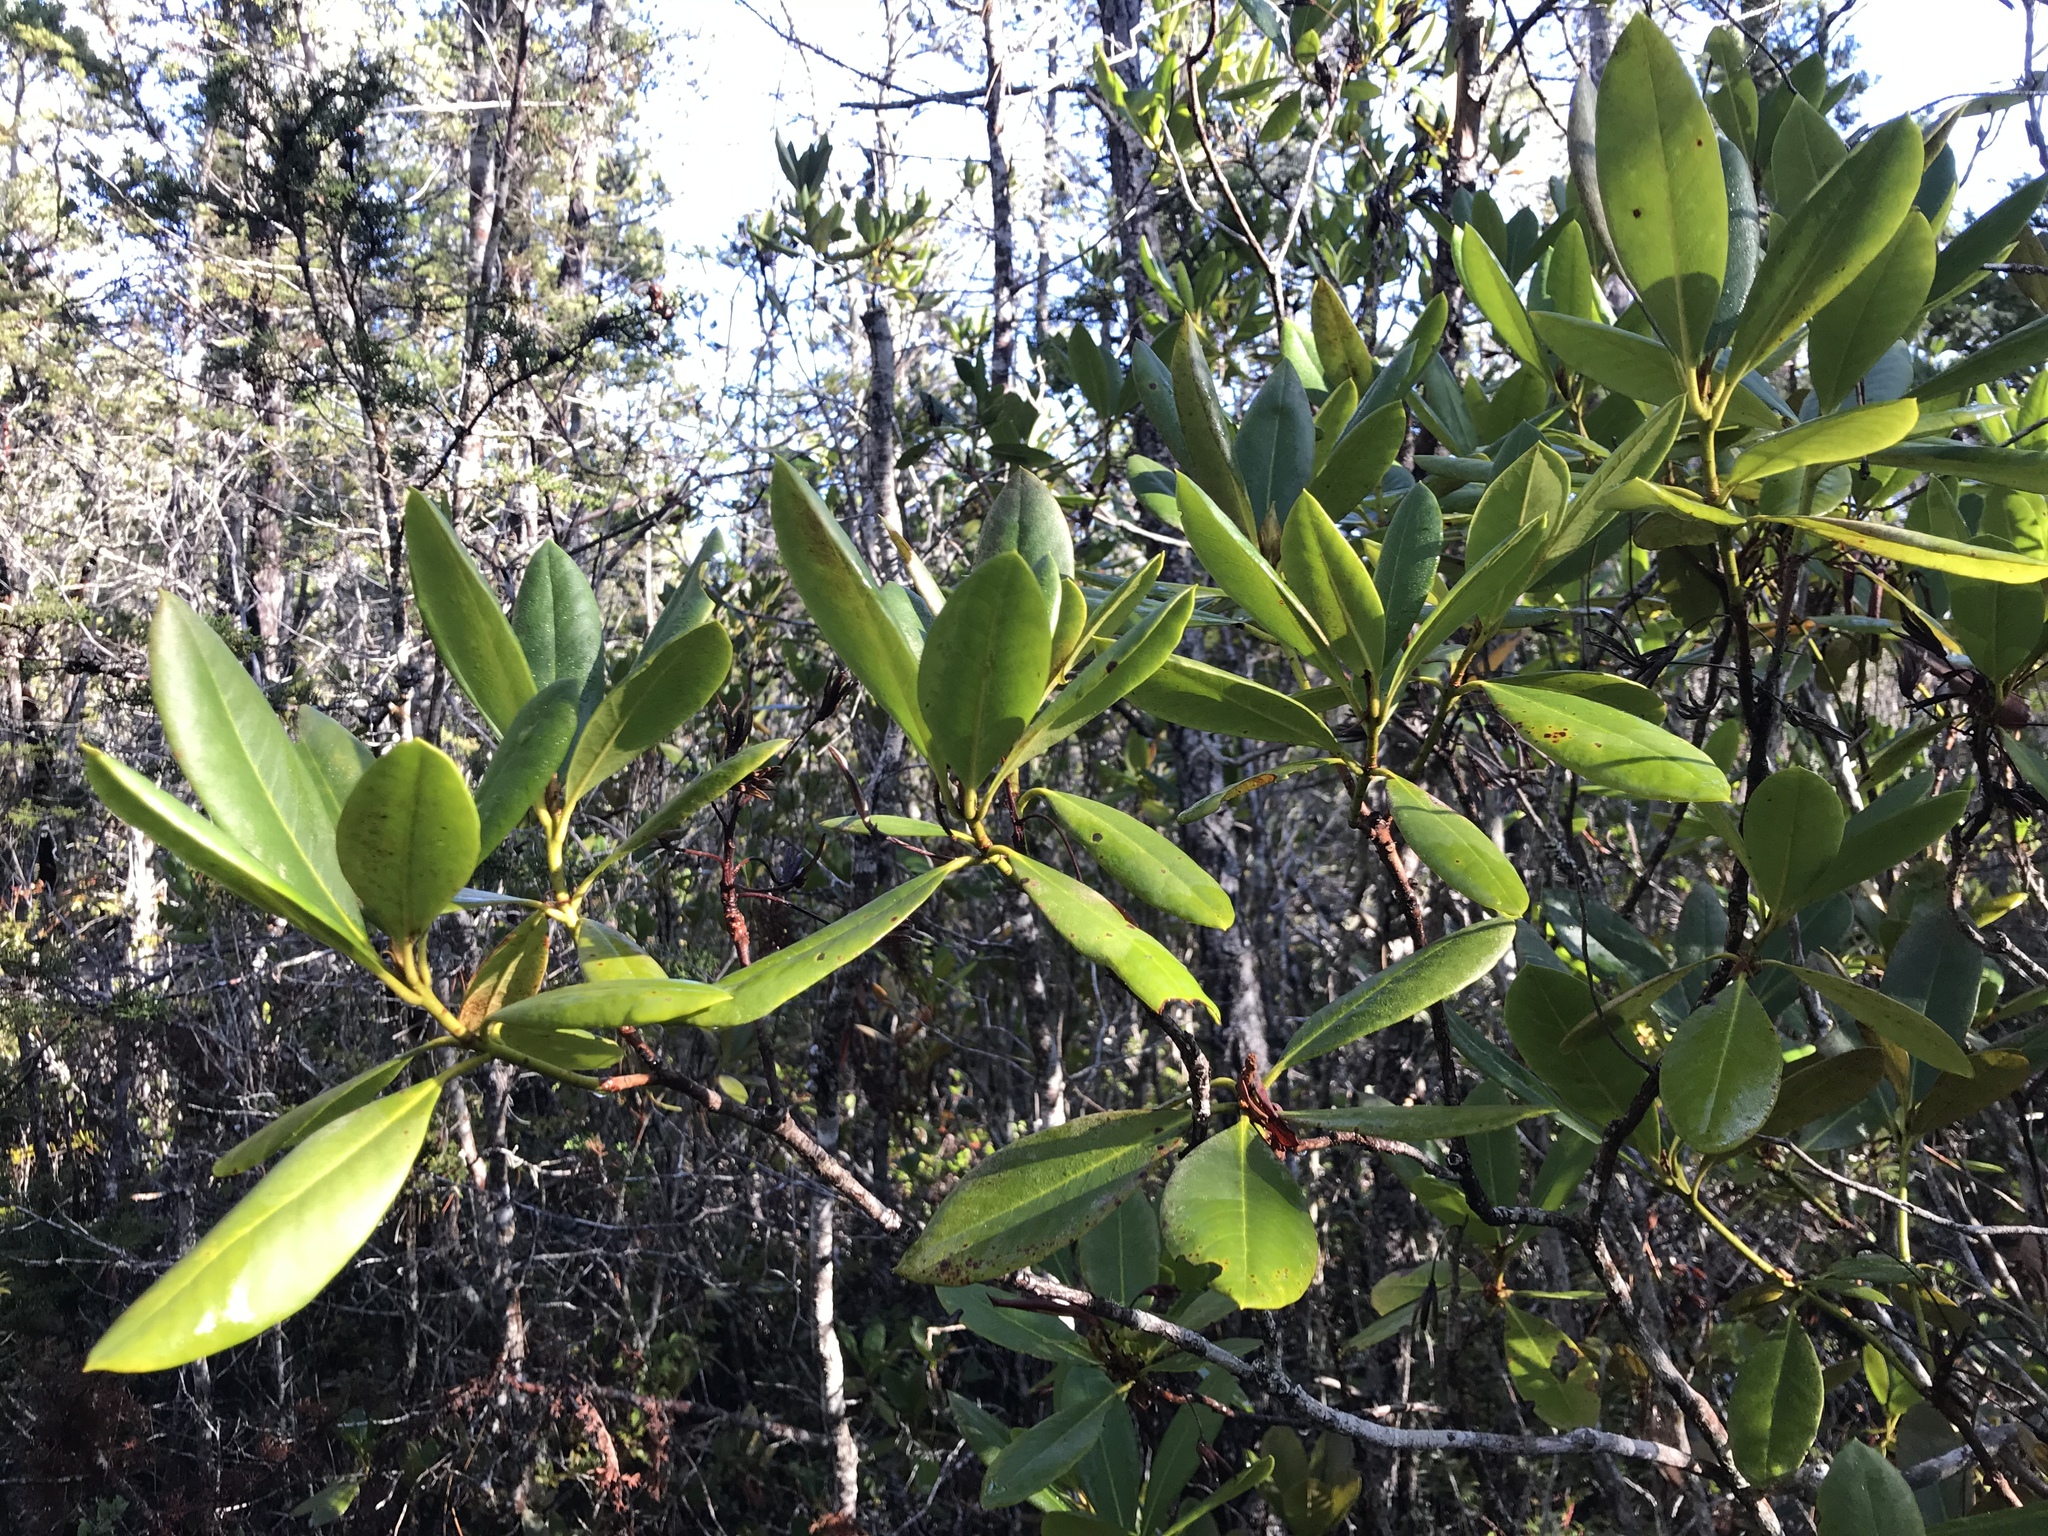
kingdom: Plantae
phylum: Tracheophyta
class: Magnoliopsida
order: Ericales
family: Ericaceae
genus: Rhododendron
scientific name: Rhododendron macrophyllum
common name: California rose bay
